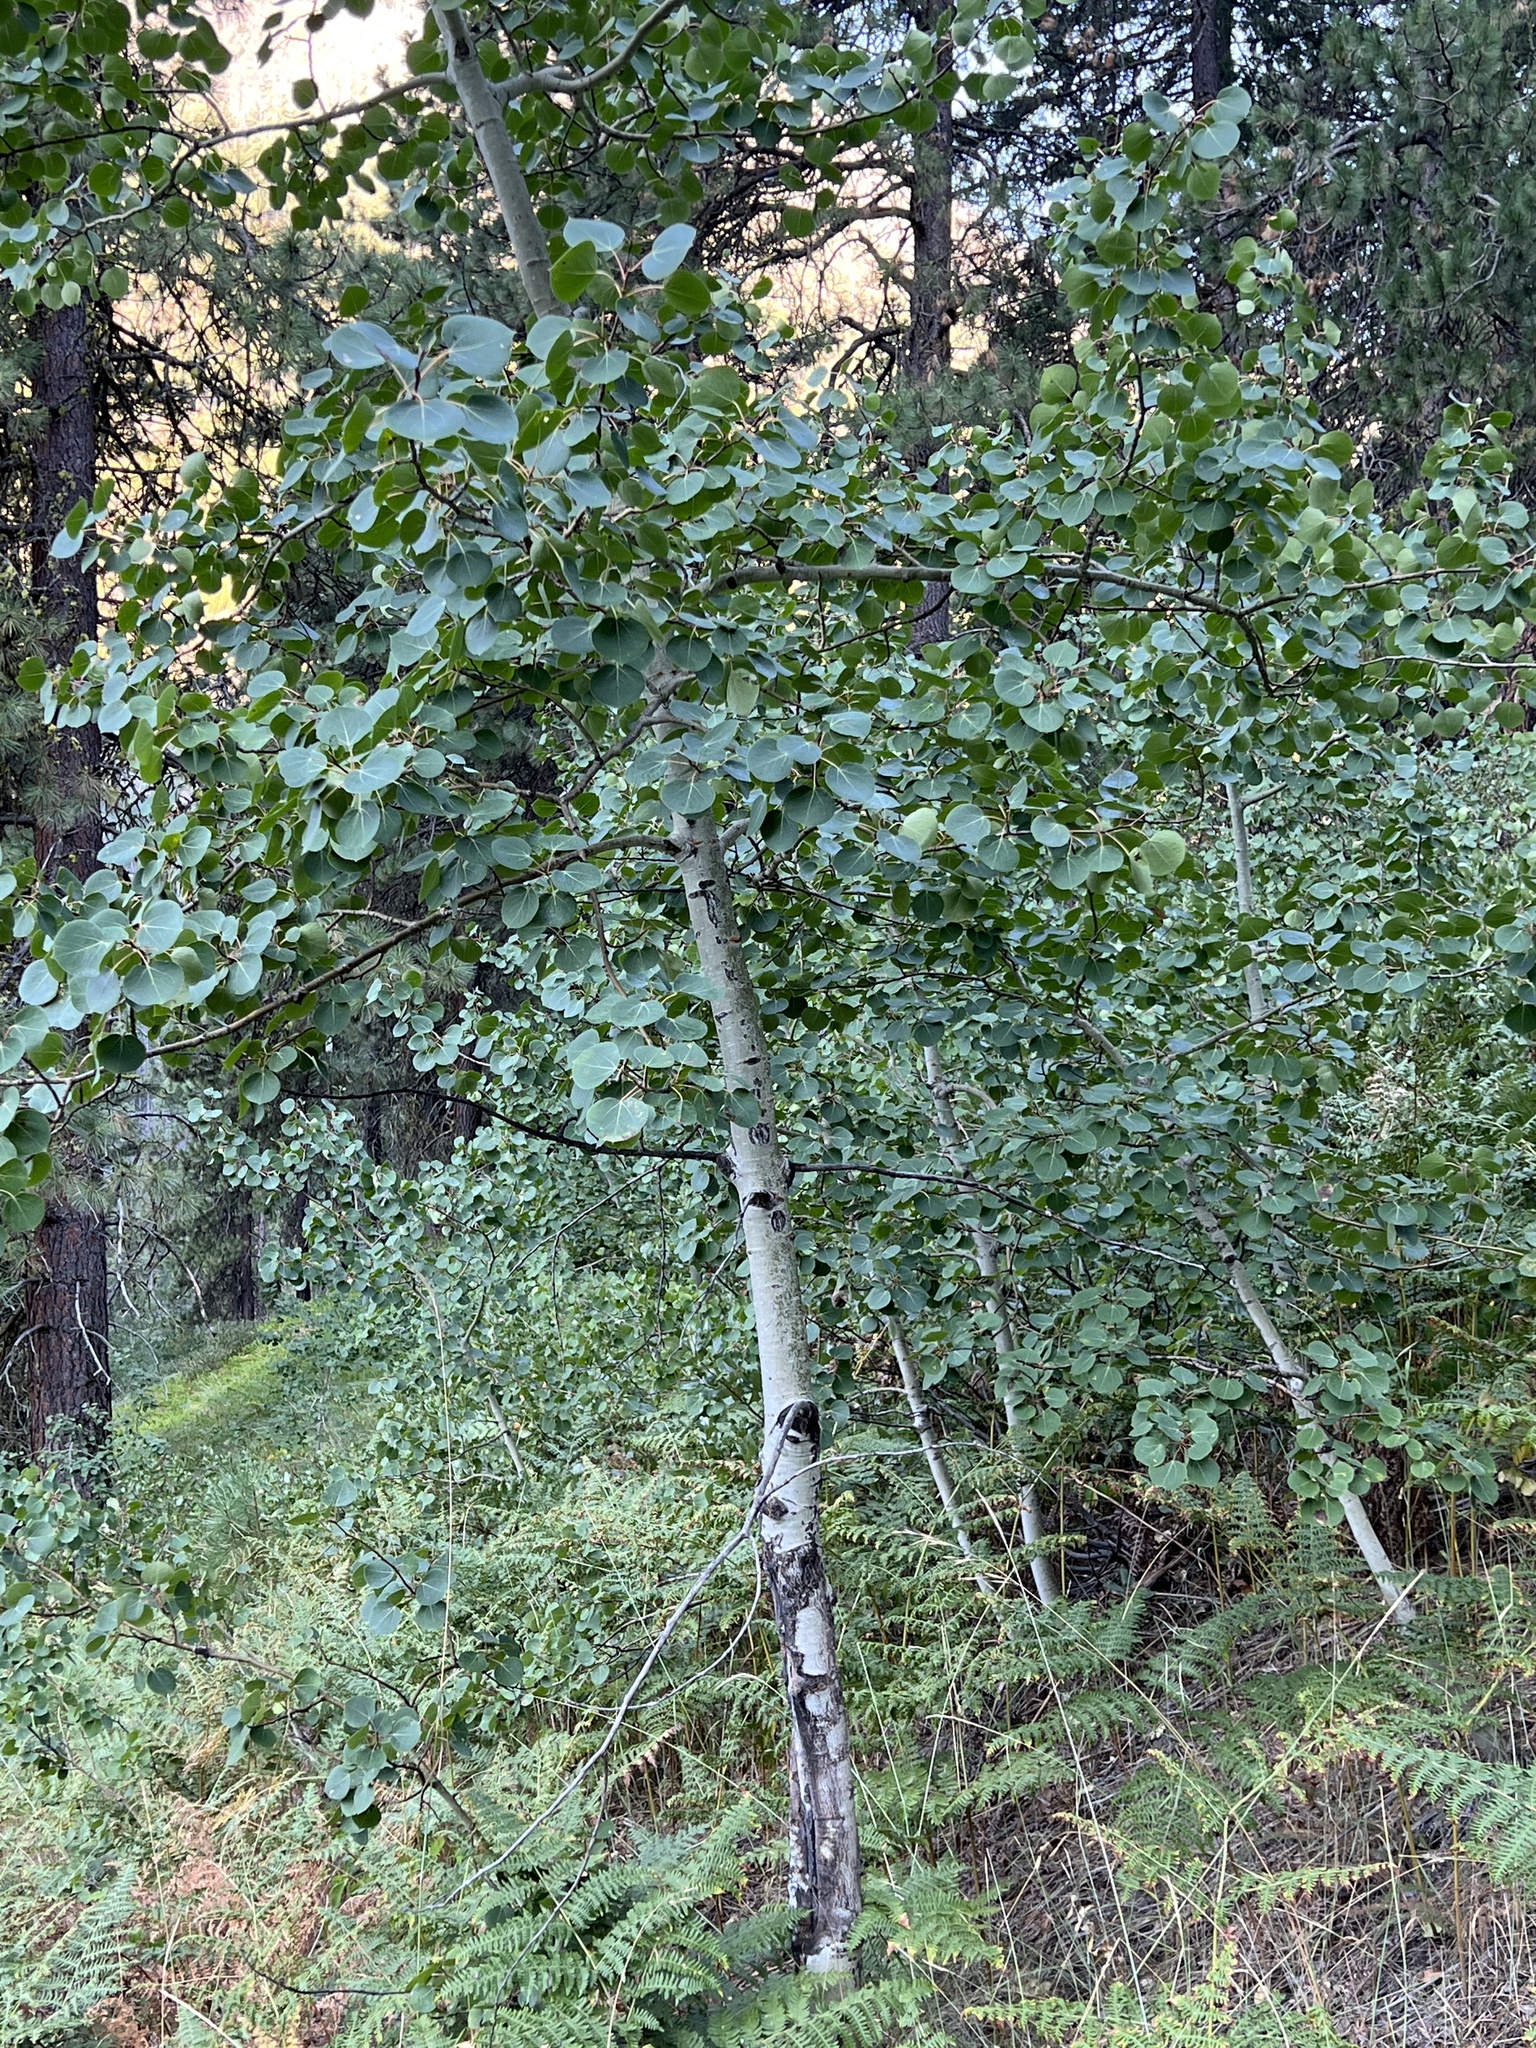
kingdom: Plantae
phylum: Tracheophyta
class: Magnoliopsida
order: Malpighiales
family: Salicaceae
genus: Populus
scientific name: Populus tremuloides
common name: Quaking aspen
